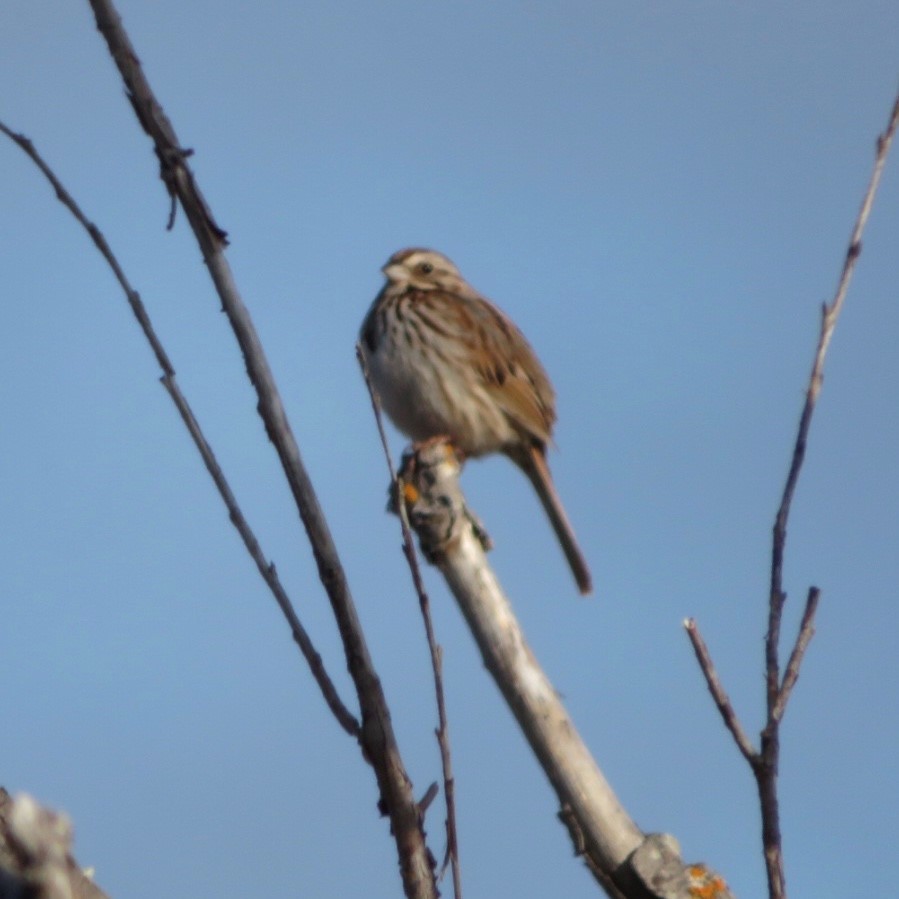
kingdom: Animalia
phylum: Chordata
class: Aves
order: Passeriformes
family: Passerellidae
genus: Melospiza
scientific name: Melospiza melodia
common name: Song sparrow
